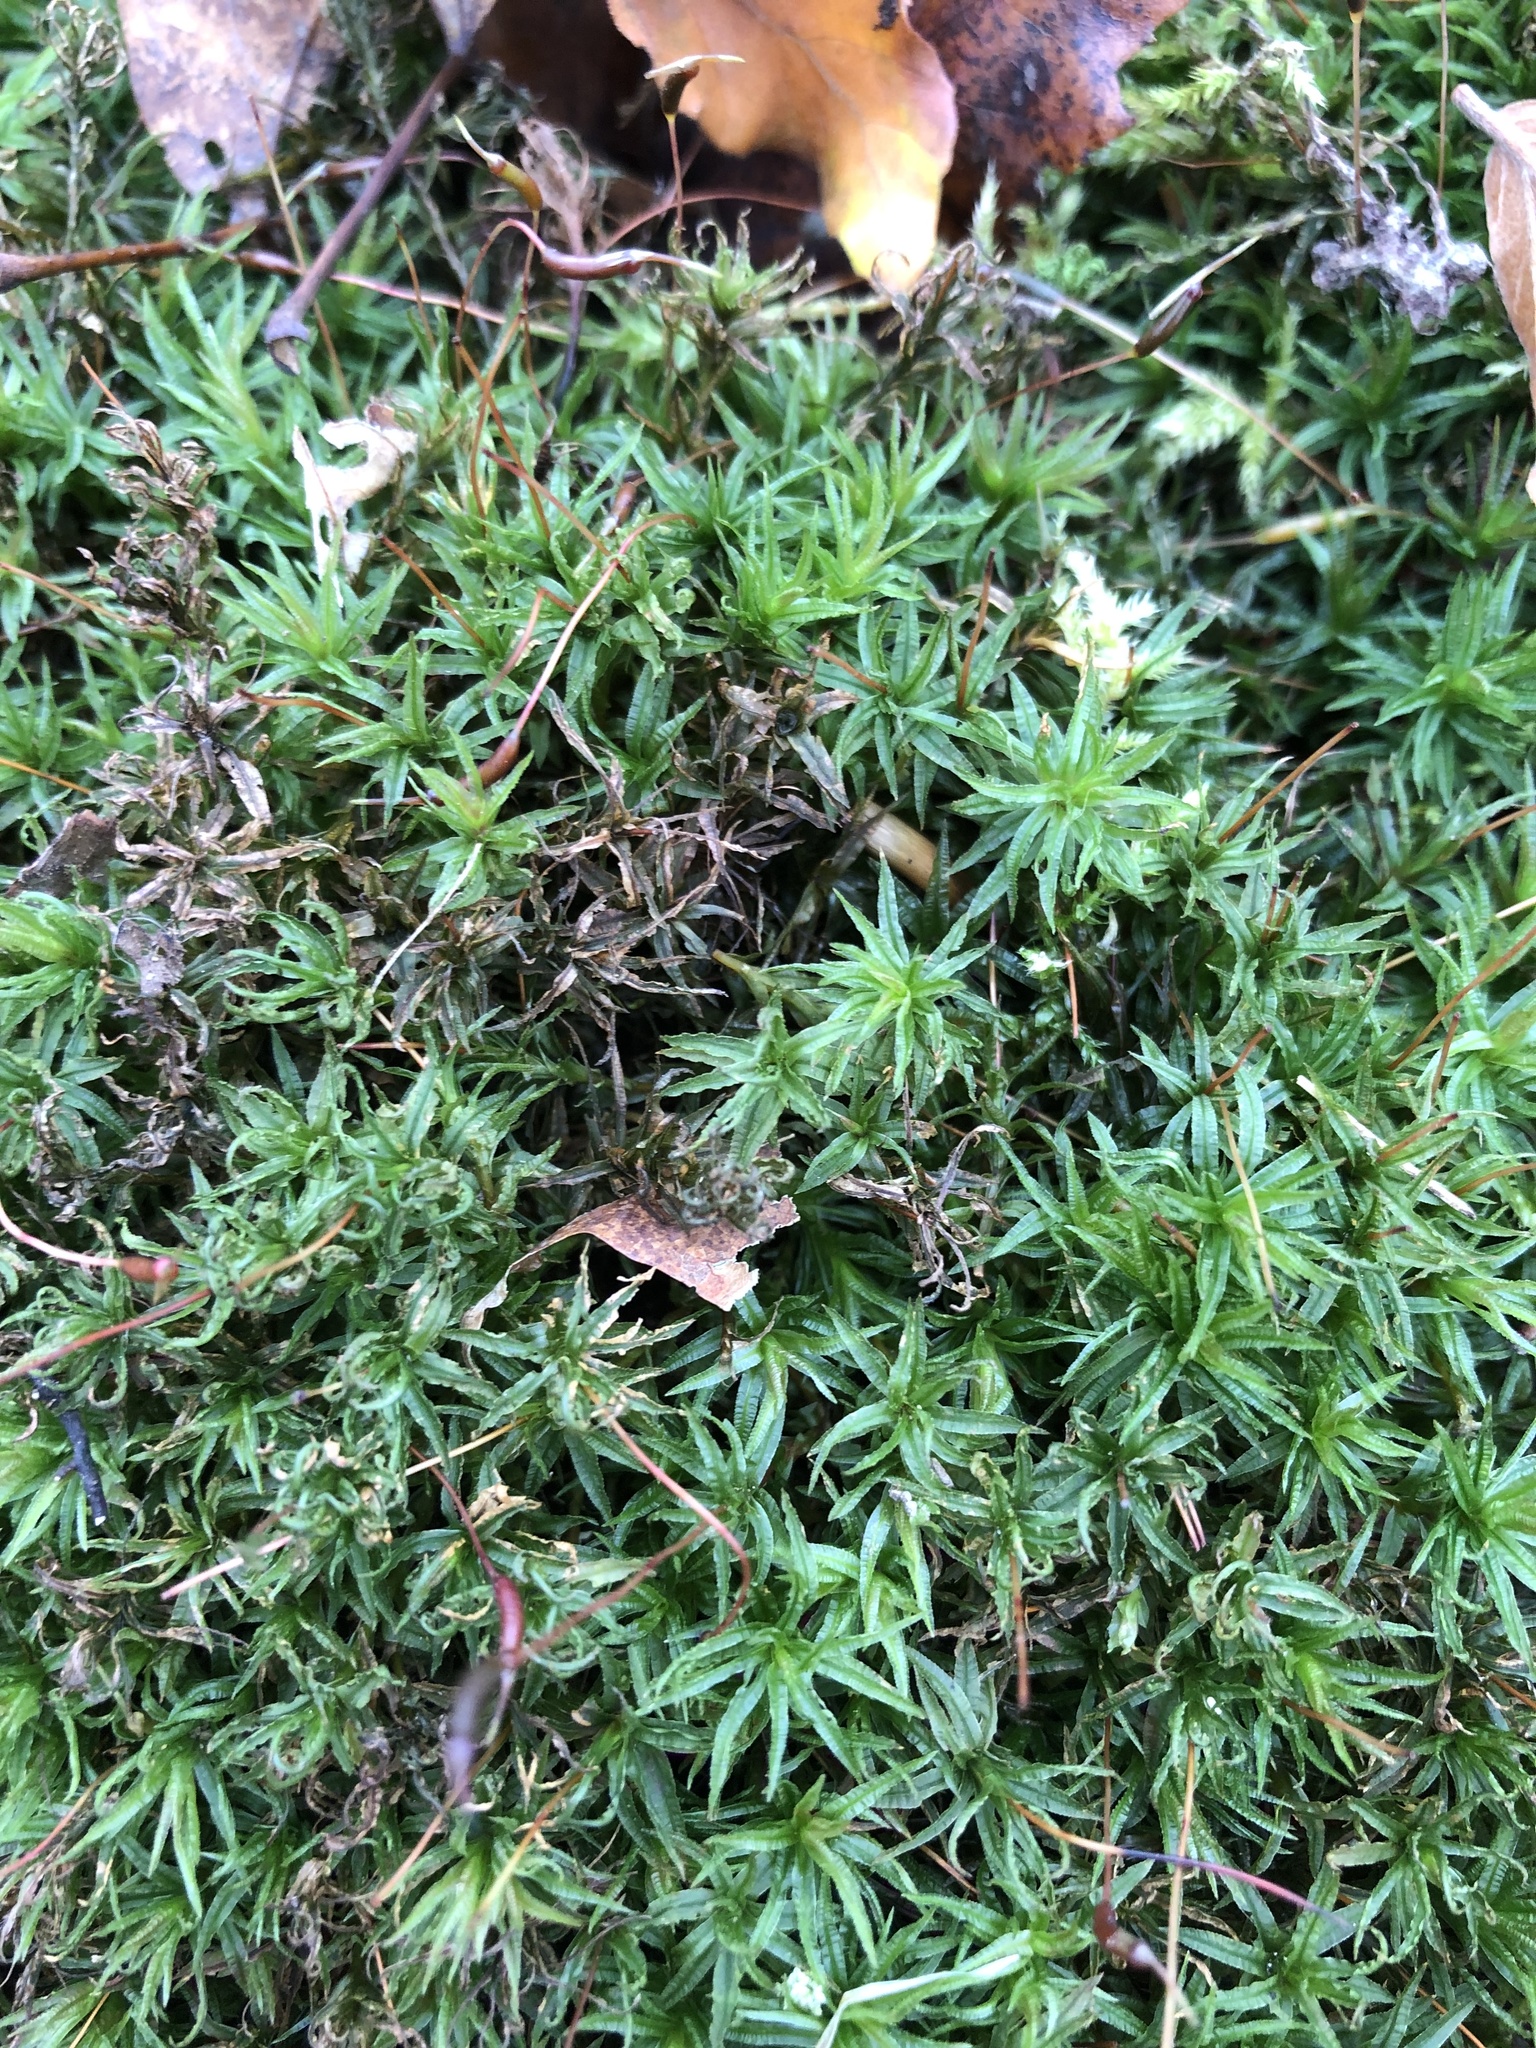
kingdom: Plantae
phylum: Bryophyta
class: Polytrichopsida
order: Polytrichales
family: Polytrichaceae
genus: Atrichum
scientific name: Atrichum undulatum
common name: Common smoothcap
